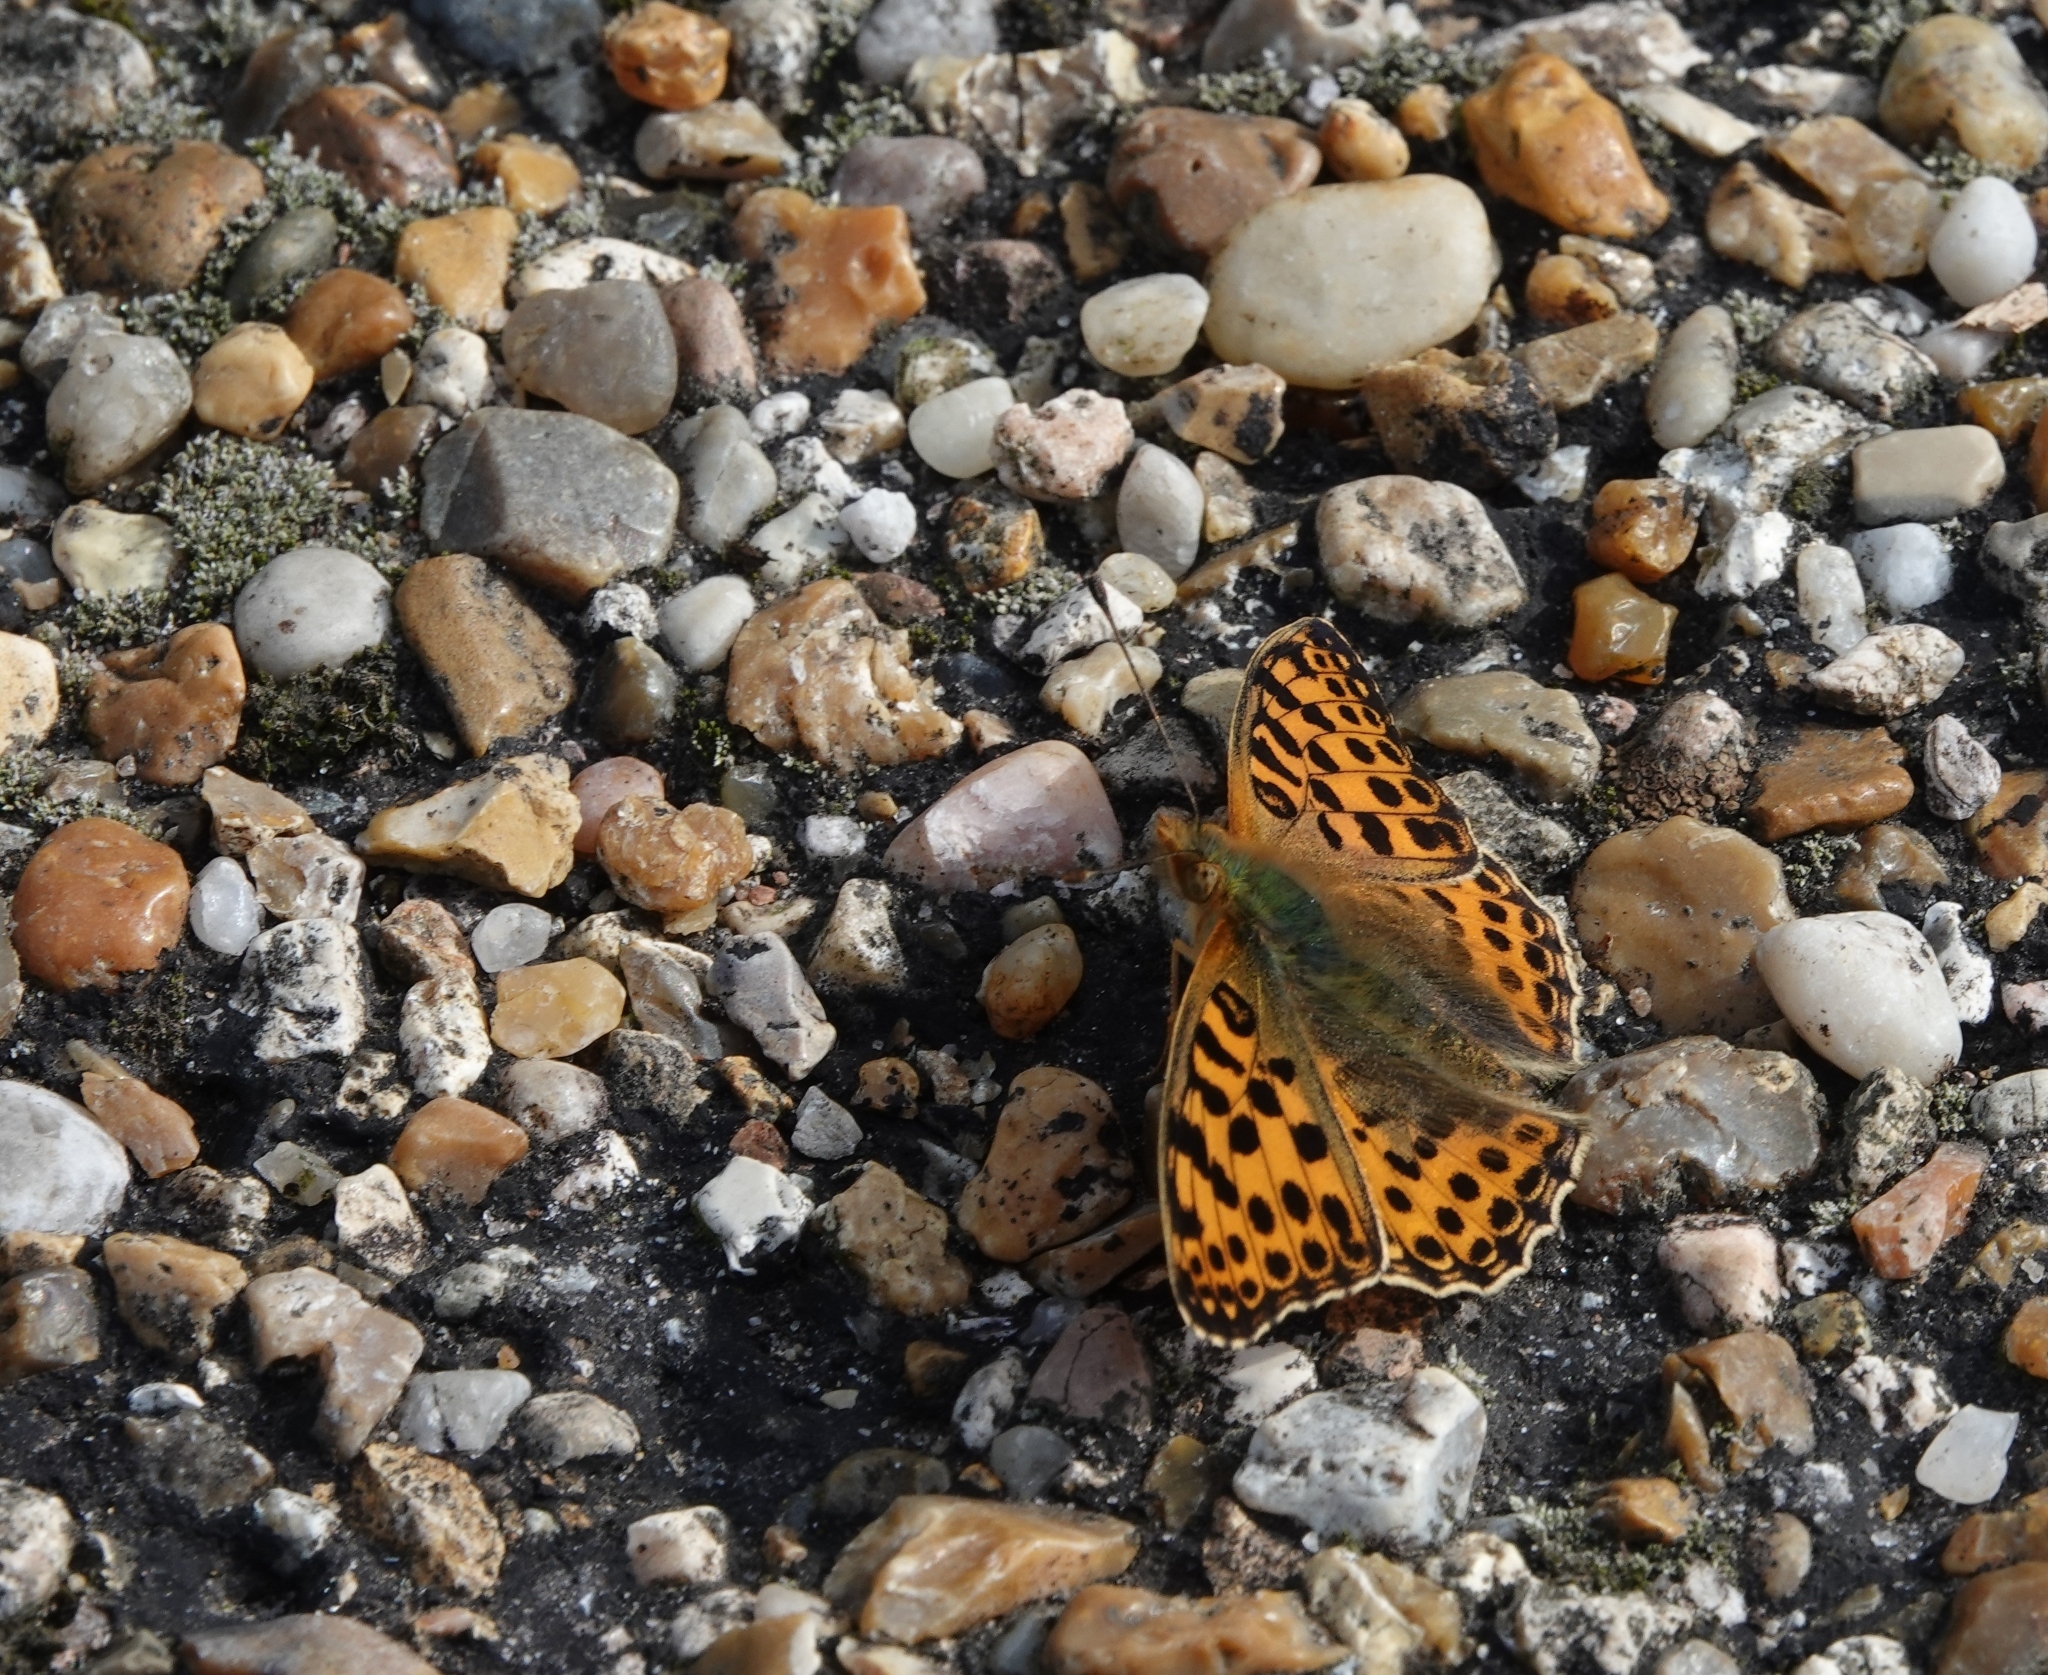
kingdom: Animalia
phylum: Arthropoda
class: Insecta
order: Lepidoptera
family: Nymphalidae
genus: Issoria
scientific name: Issoria lathonia
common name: Queen of spain fritillary
